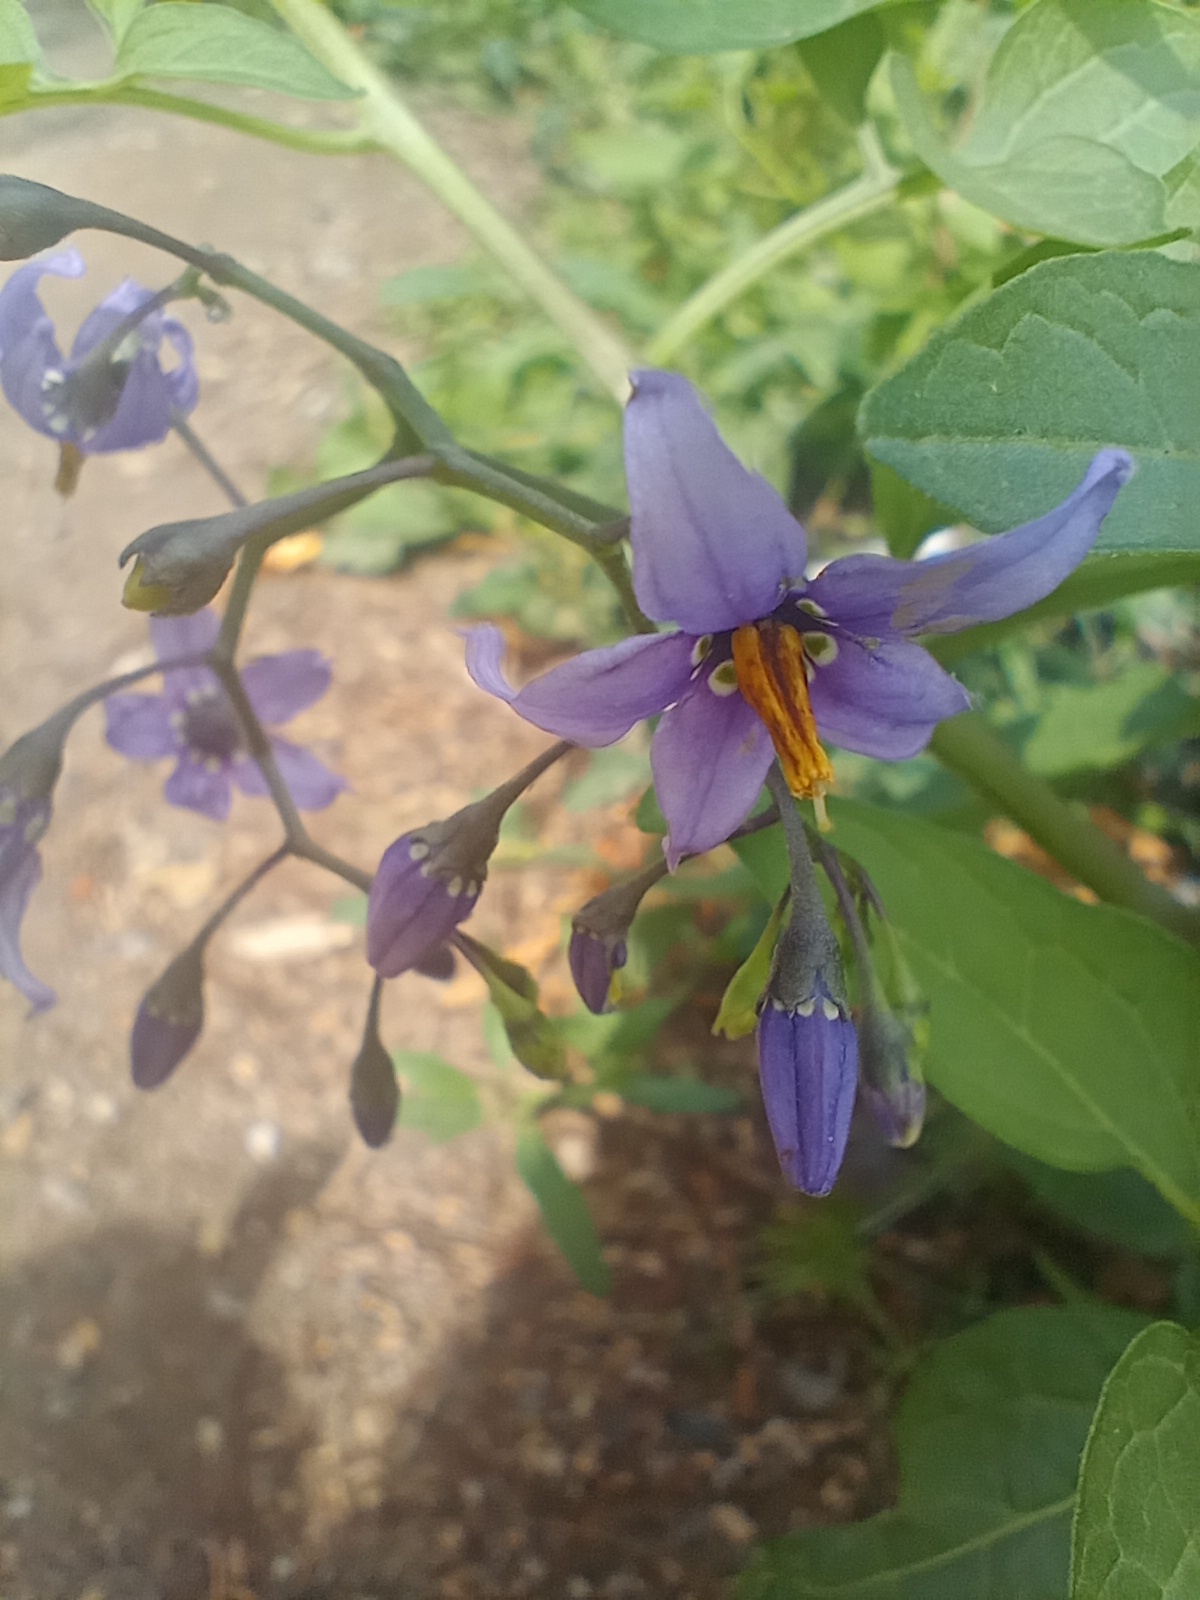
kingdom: Plantae
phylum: Tracheophyta
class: Magnoliopsida
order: Solanales
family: Solanaceae
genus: Solanum
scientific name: Solanum dulcamara
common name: Climbing nightshade
